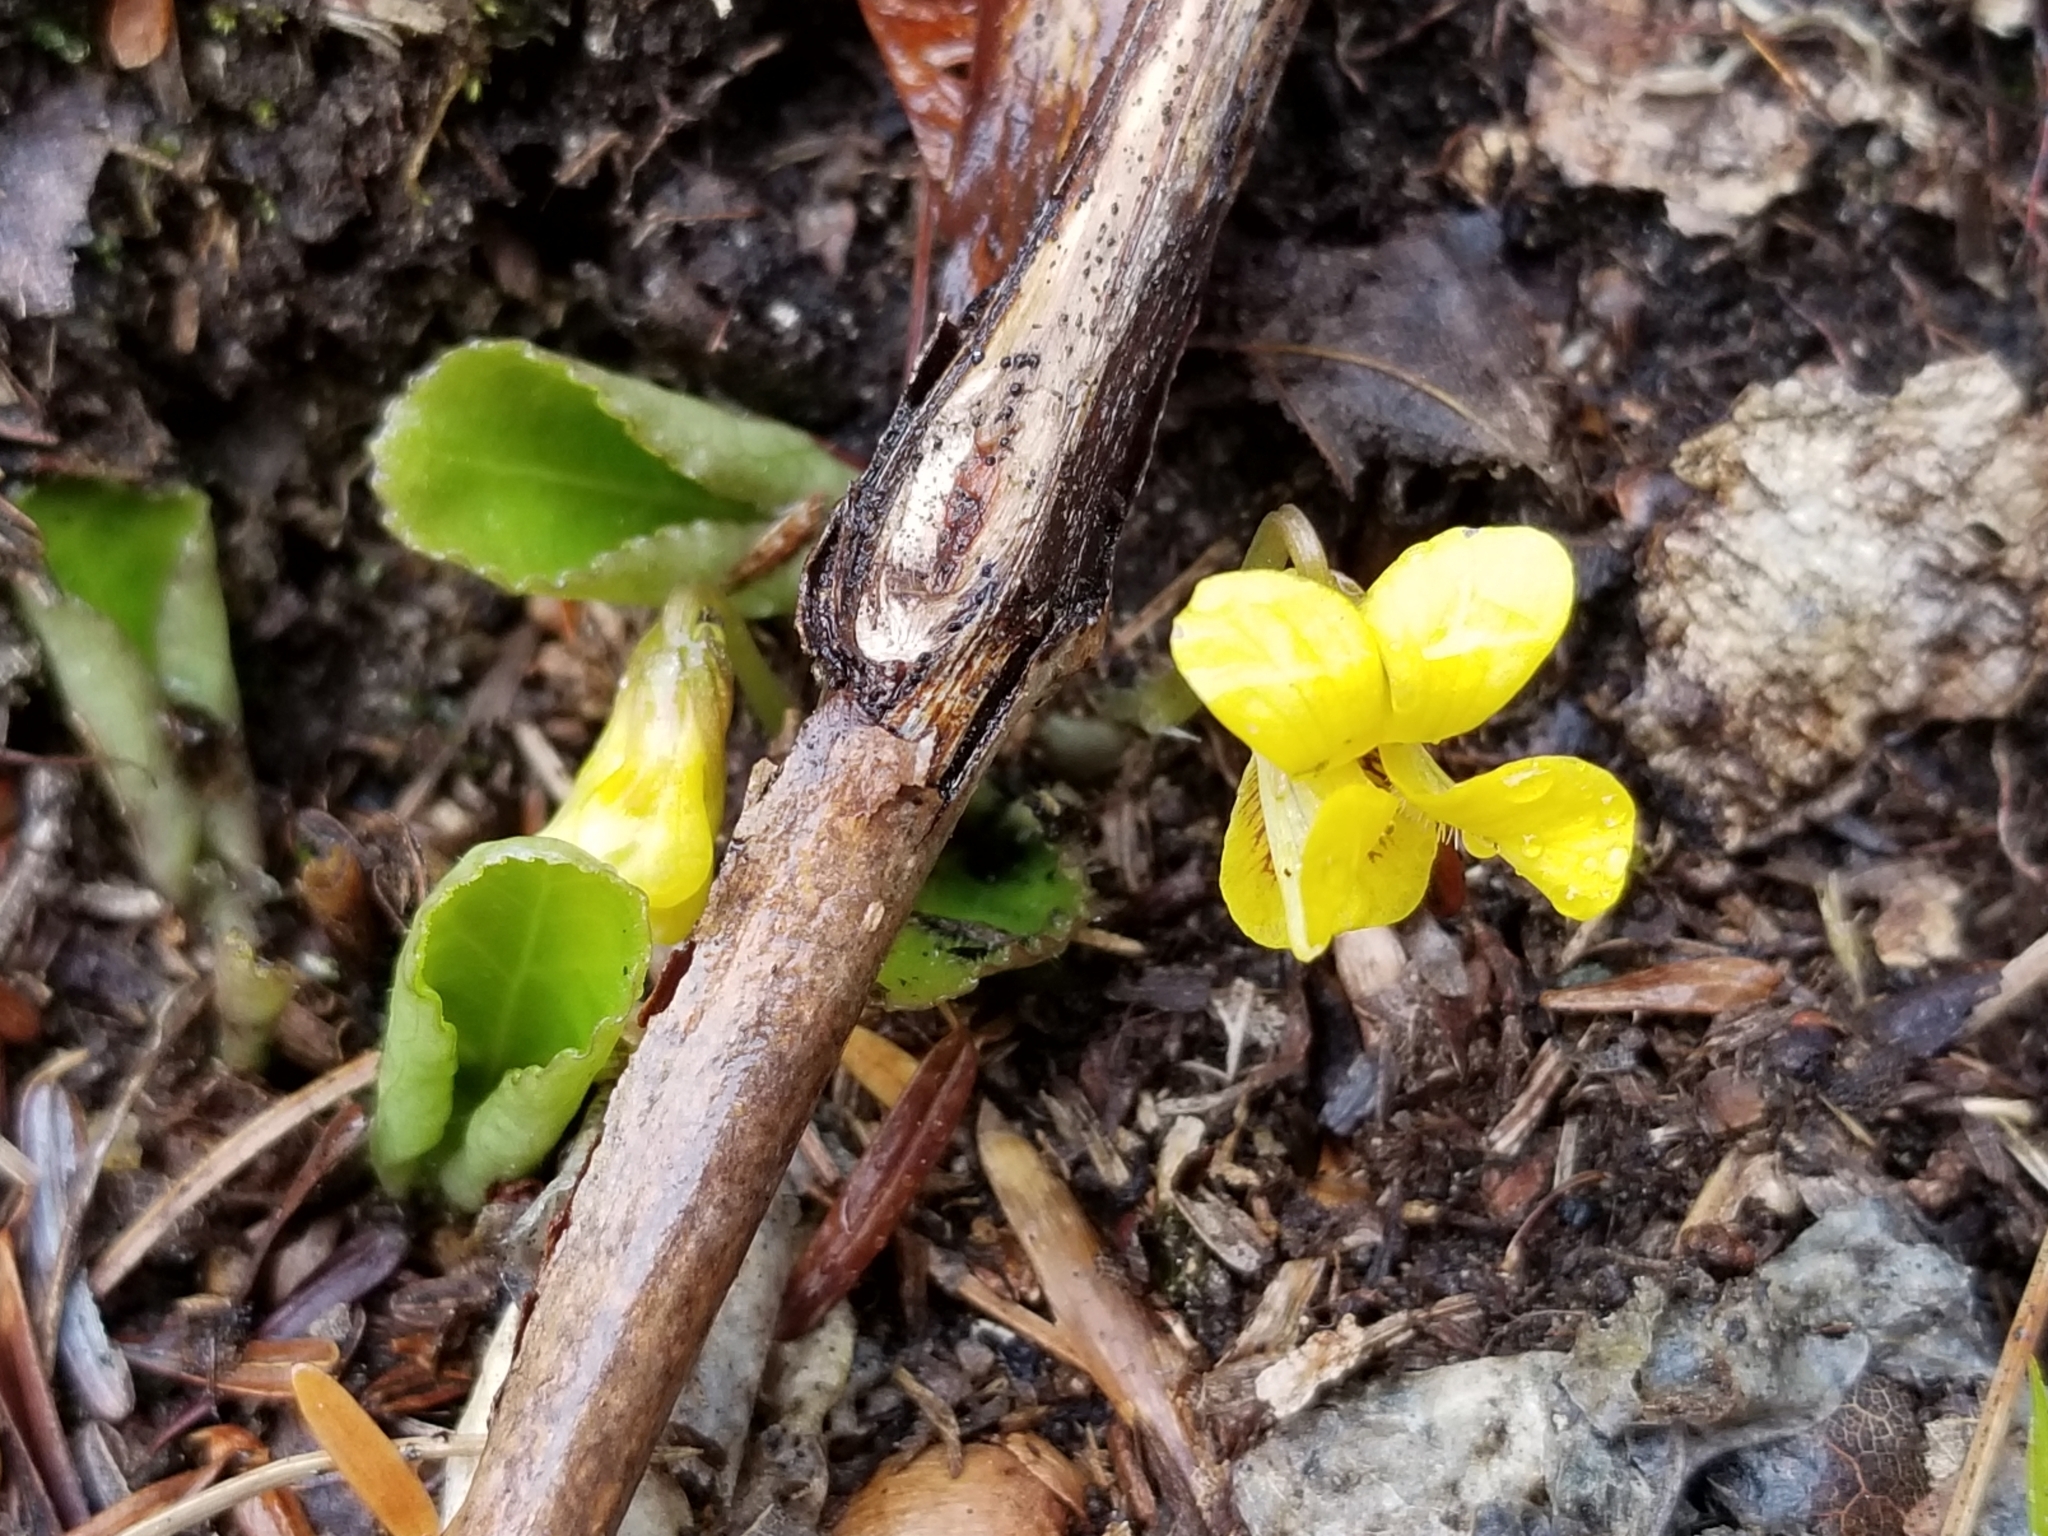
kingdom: Plantae
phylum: Tracheophyta
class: Magnoliopsida
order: Malpighiales
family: Violaceae
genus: Viola
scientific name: Viola rotundifolia
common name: Early yellow violet
